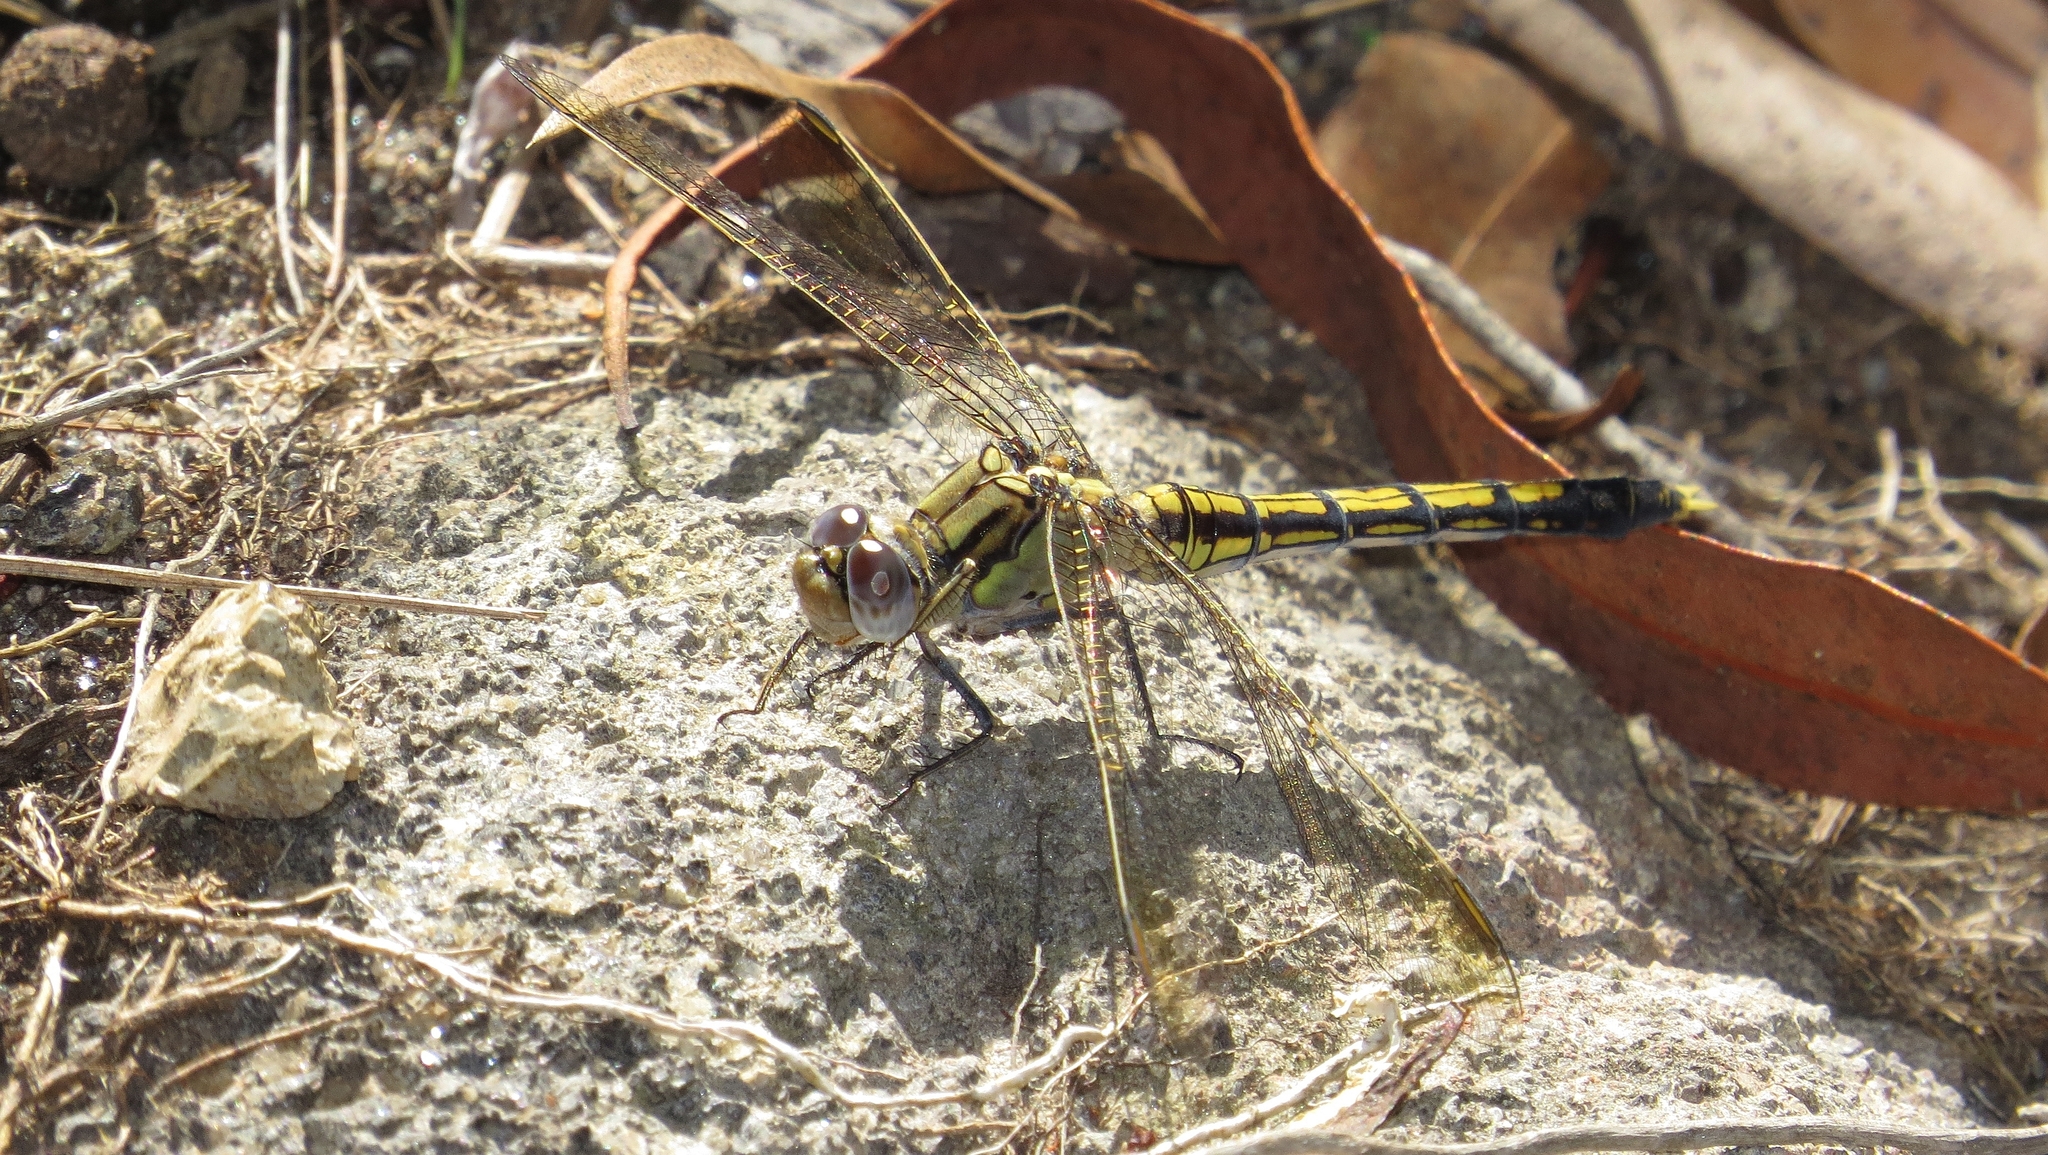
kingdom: Animalia
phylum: Arthropoda
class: Insecta
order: Odonata
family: Libellulidae
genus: Orthetrum
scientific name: Orthetrum caledonicum
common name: Blue skimmer
